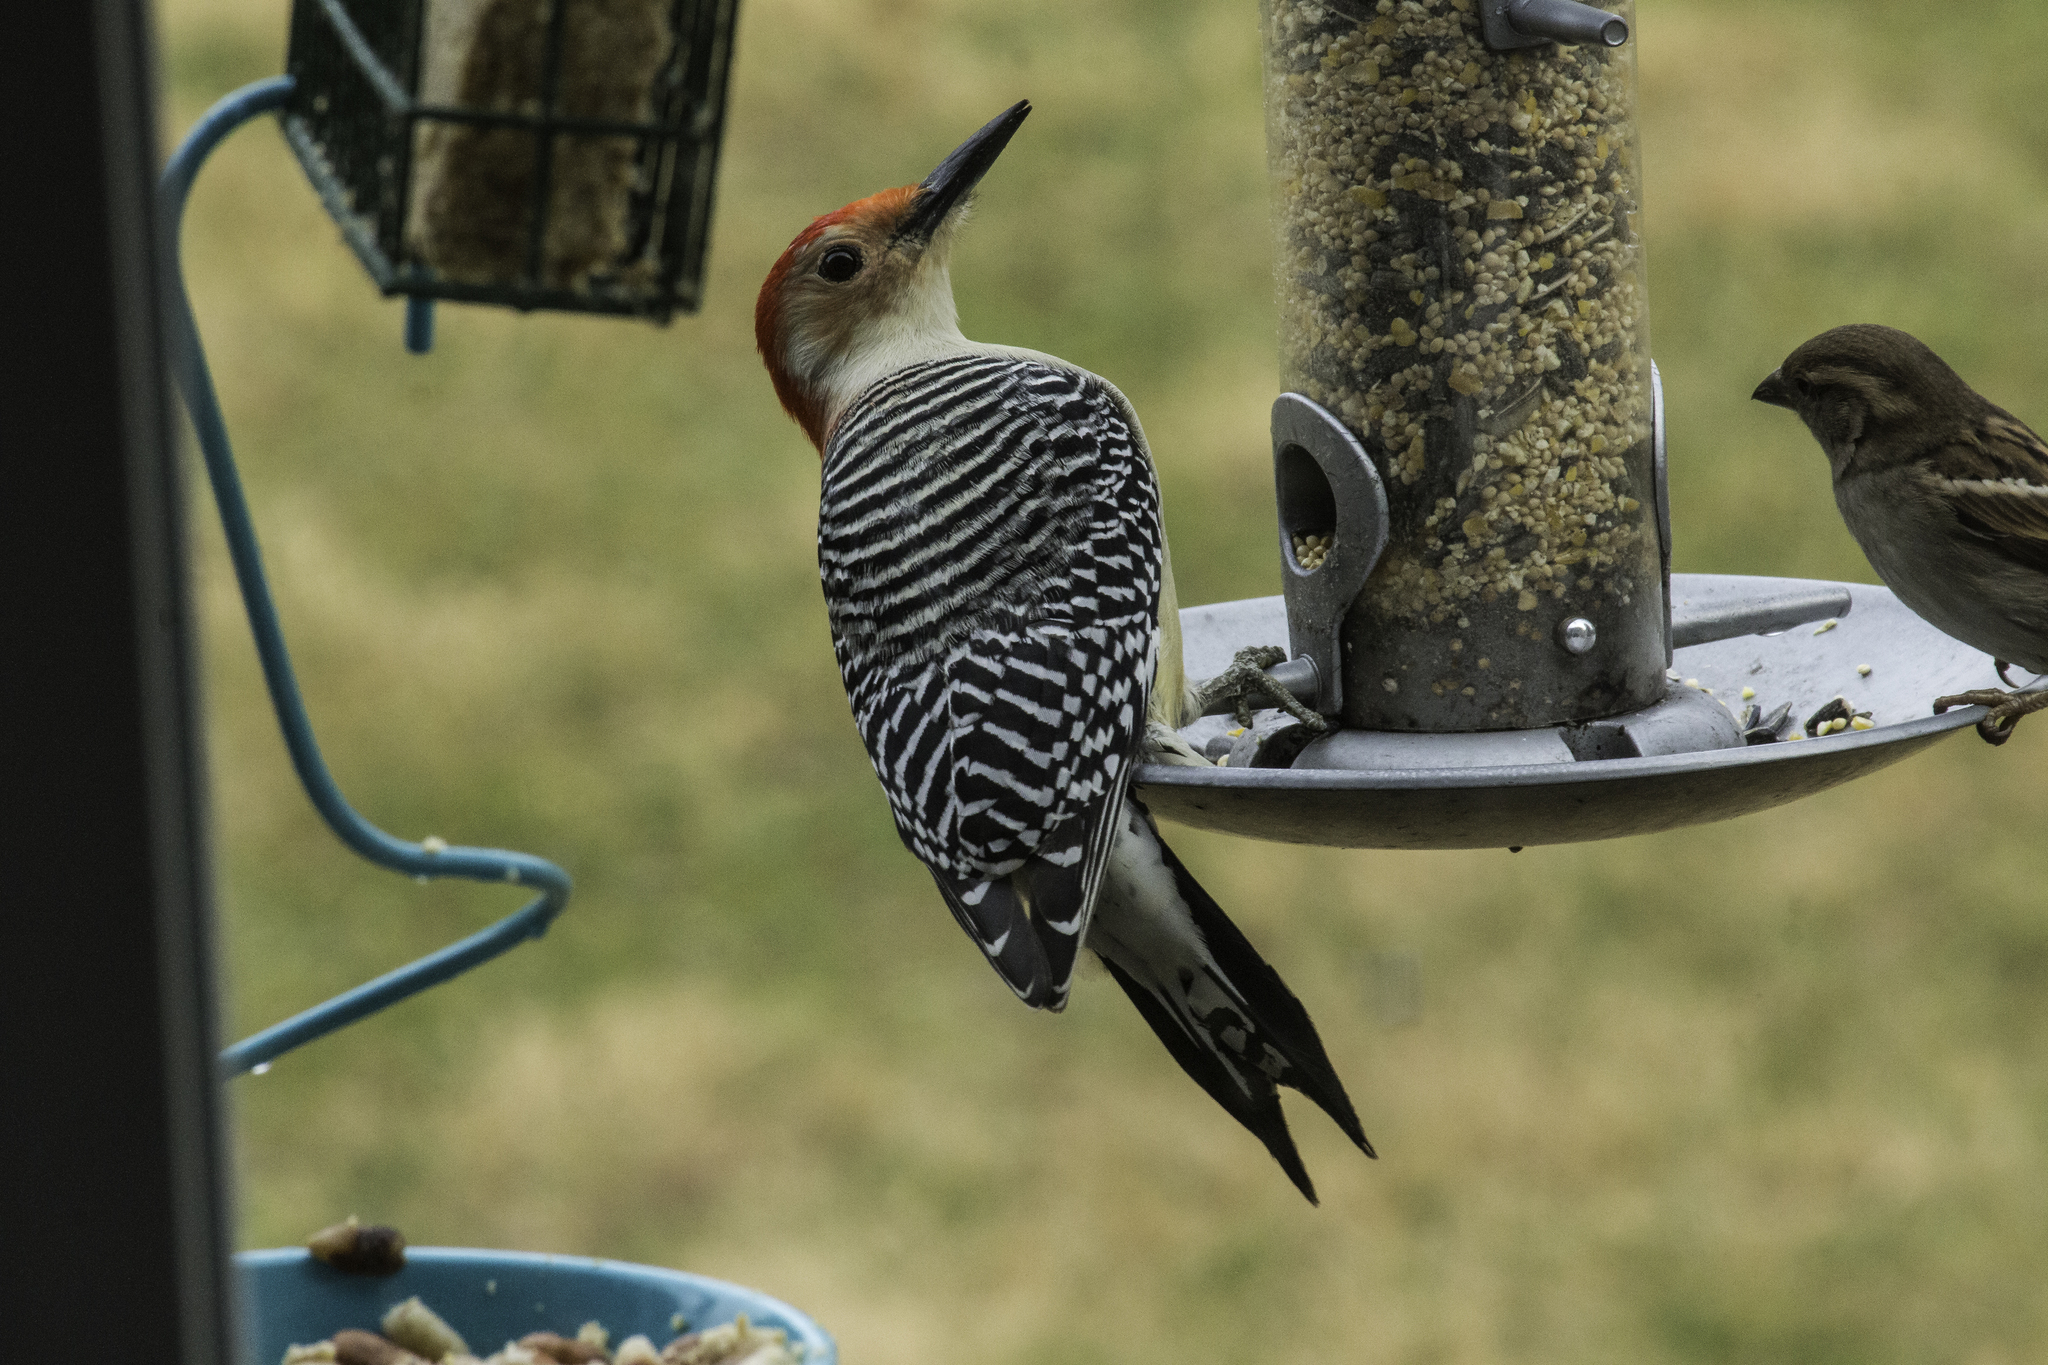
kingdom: Animalia
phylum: Chordata
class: Aves
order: Piciformes
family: Picidae
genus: Melanerpes
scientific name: Melanerpes carolinus
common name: Red-bellied woodpecker
